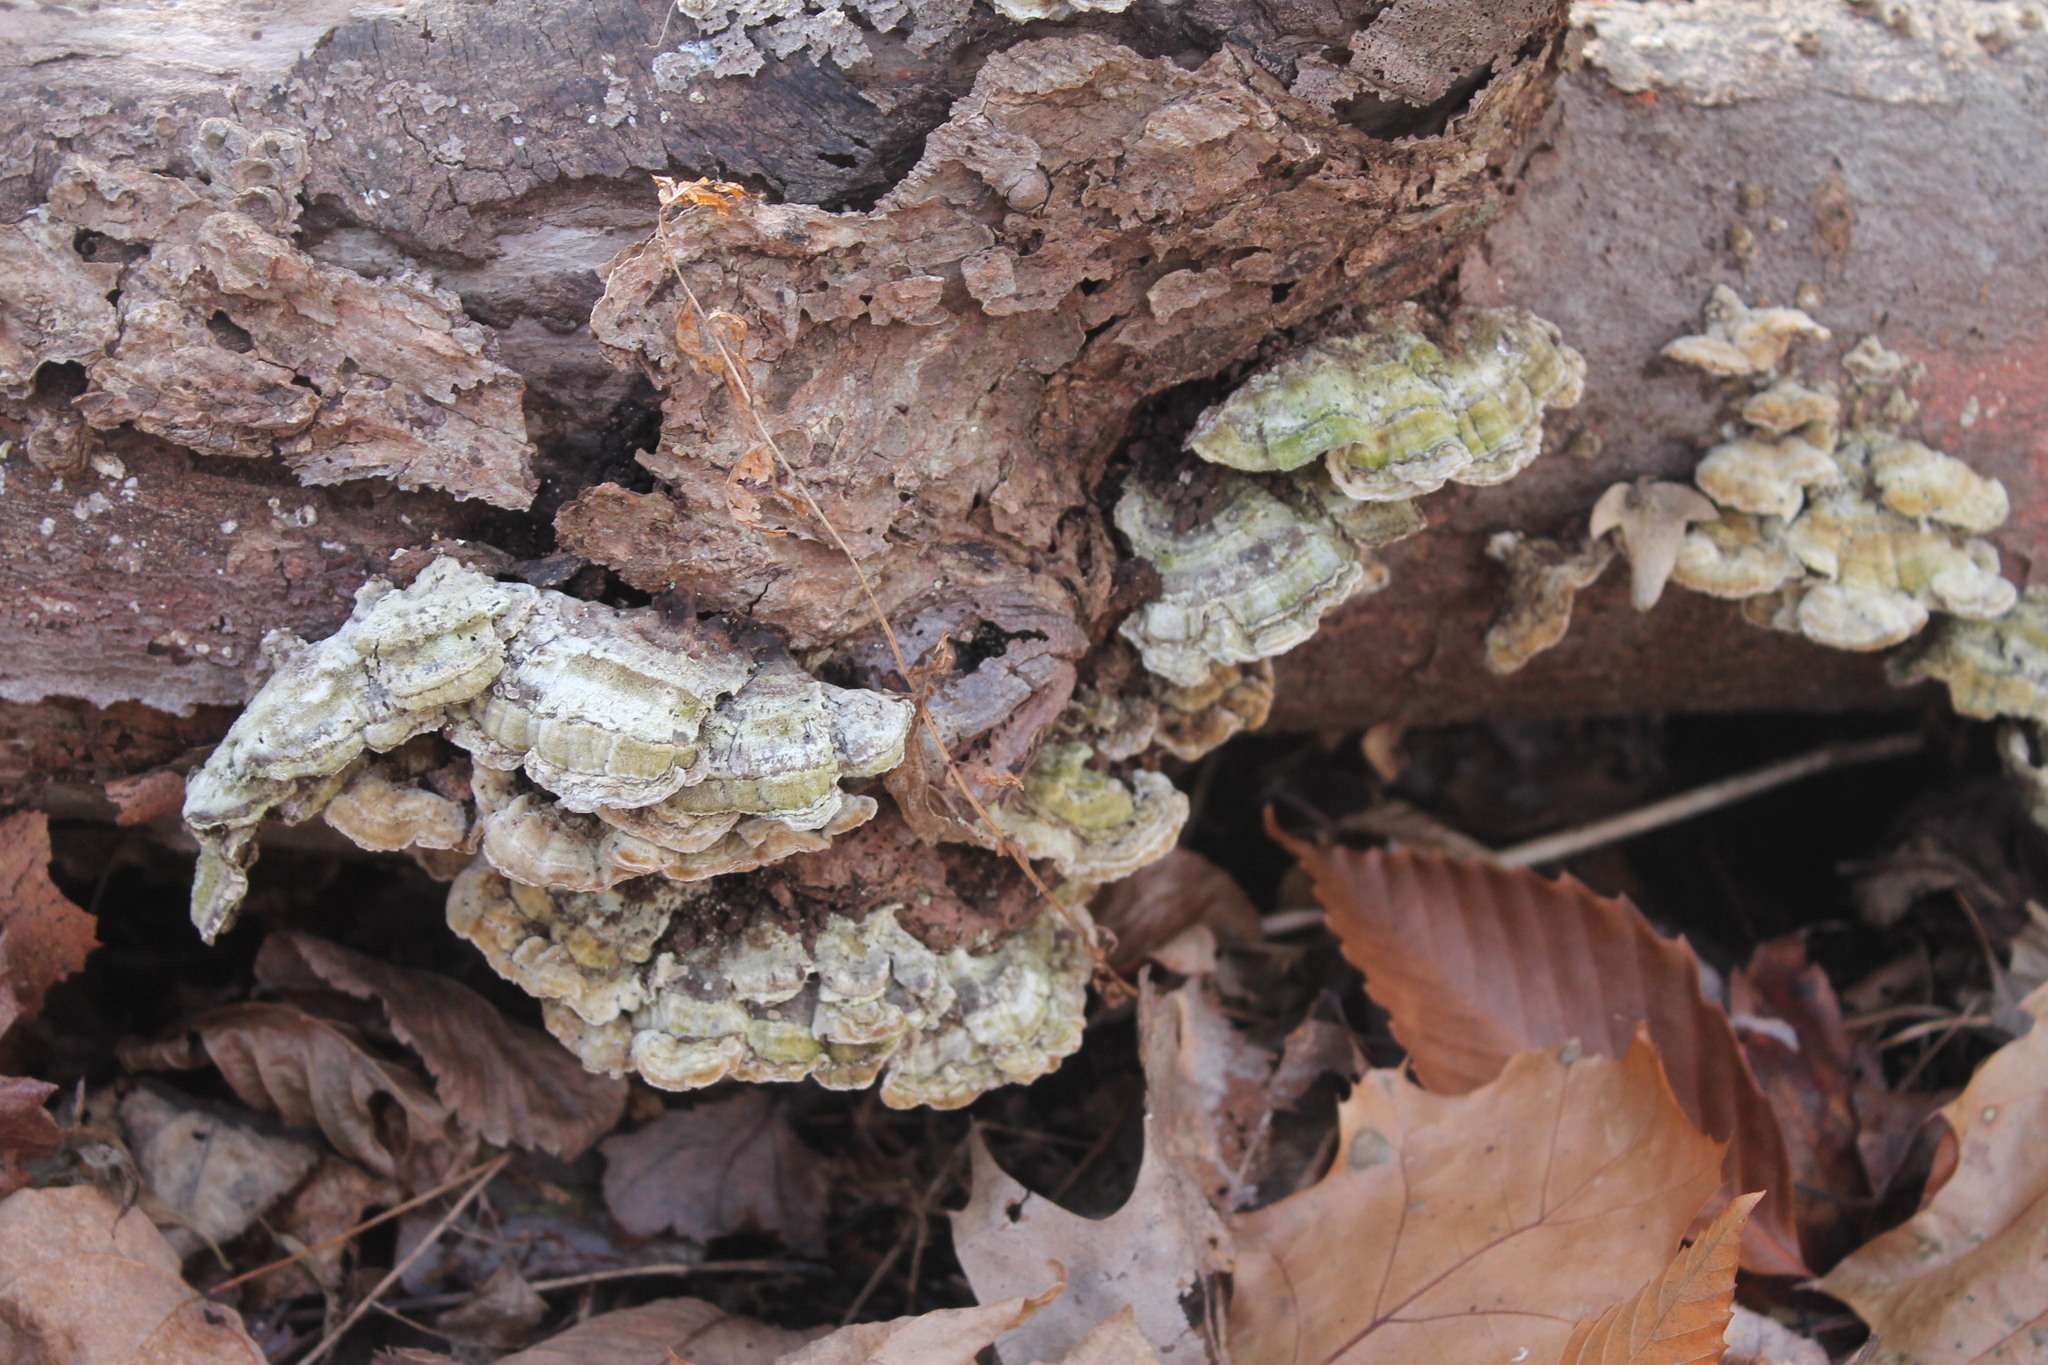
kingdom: Fungi
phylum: Basidiomycota
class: Agaricomycetes
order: Hymenochaetales
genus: Trichaptum
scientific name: Trichaptum abietinum
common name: Purplepore bracket
